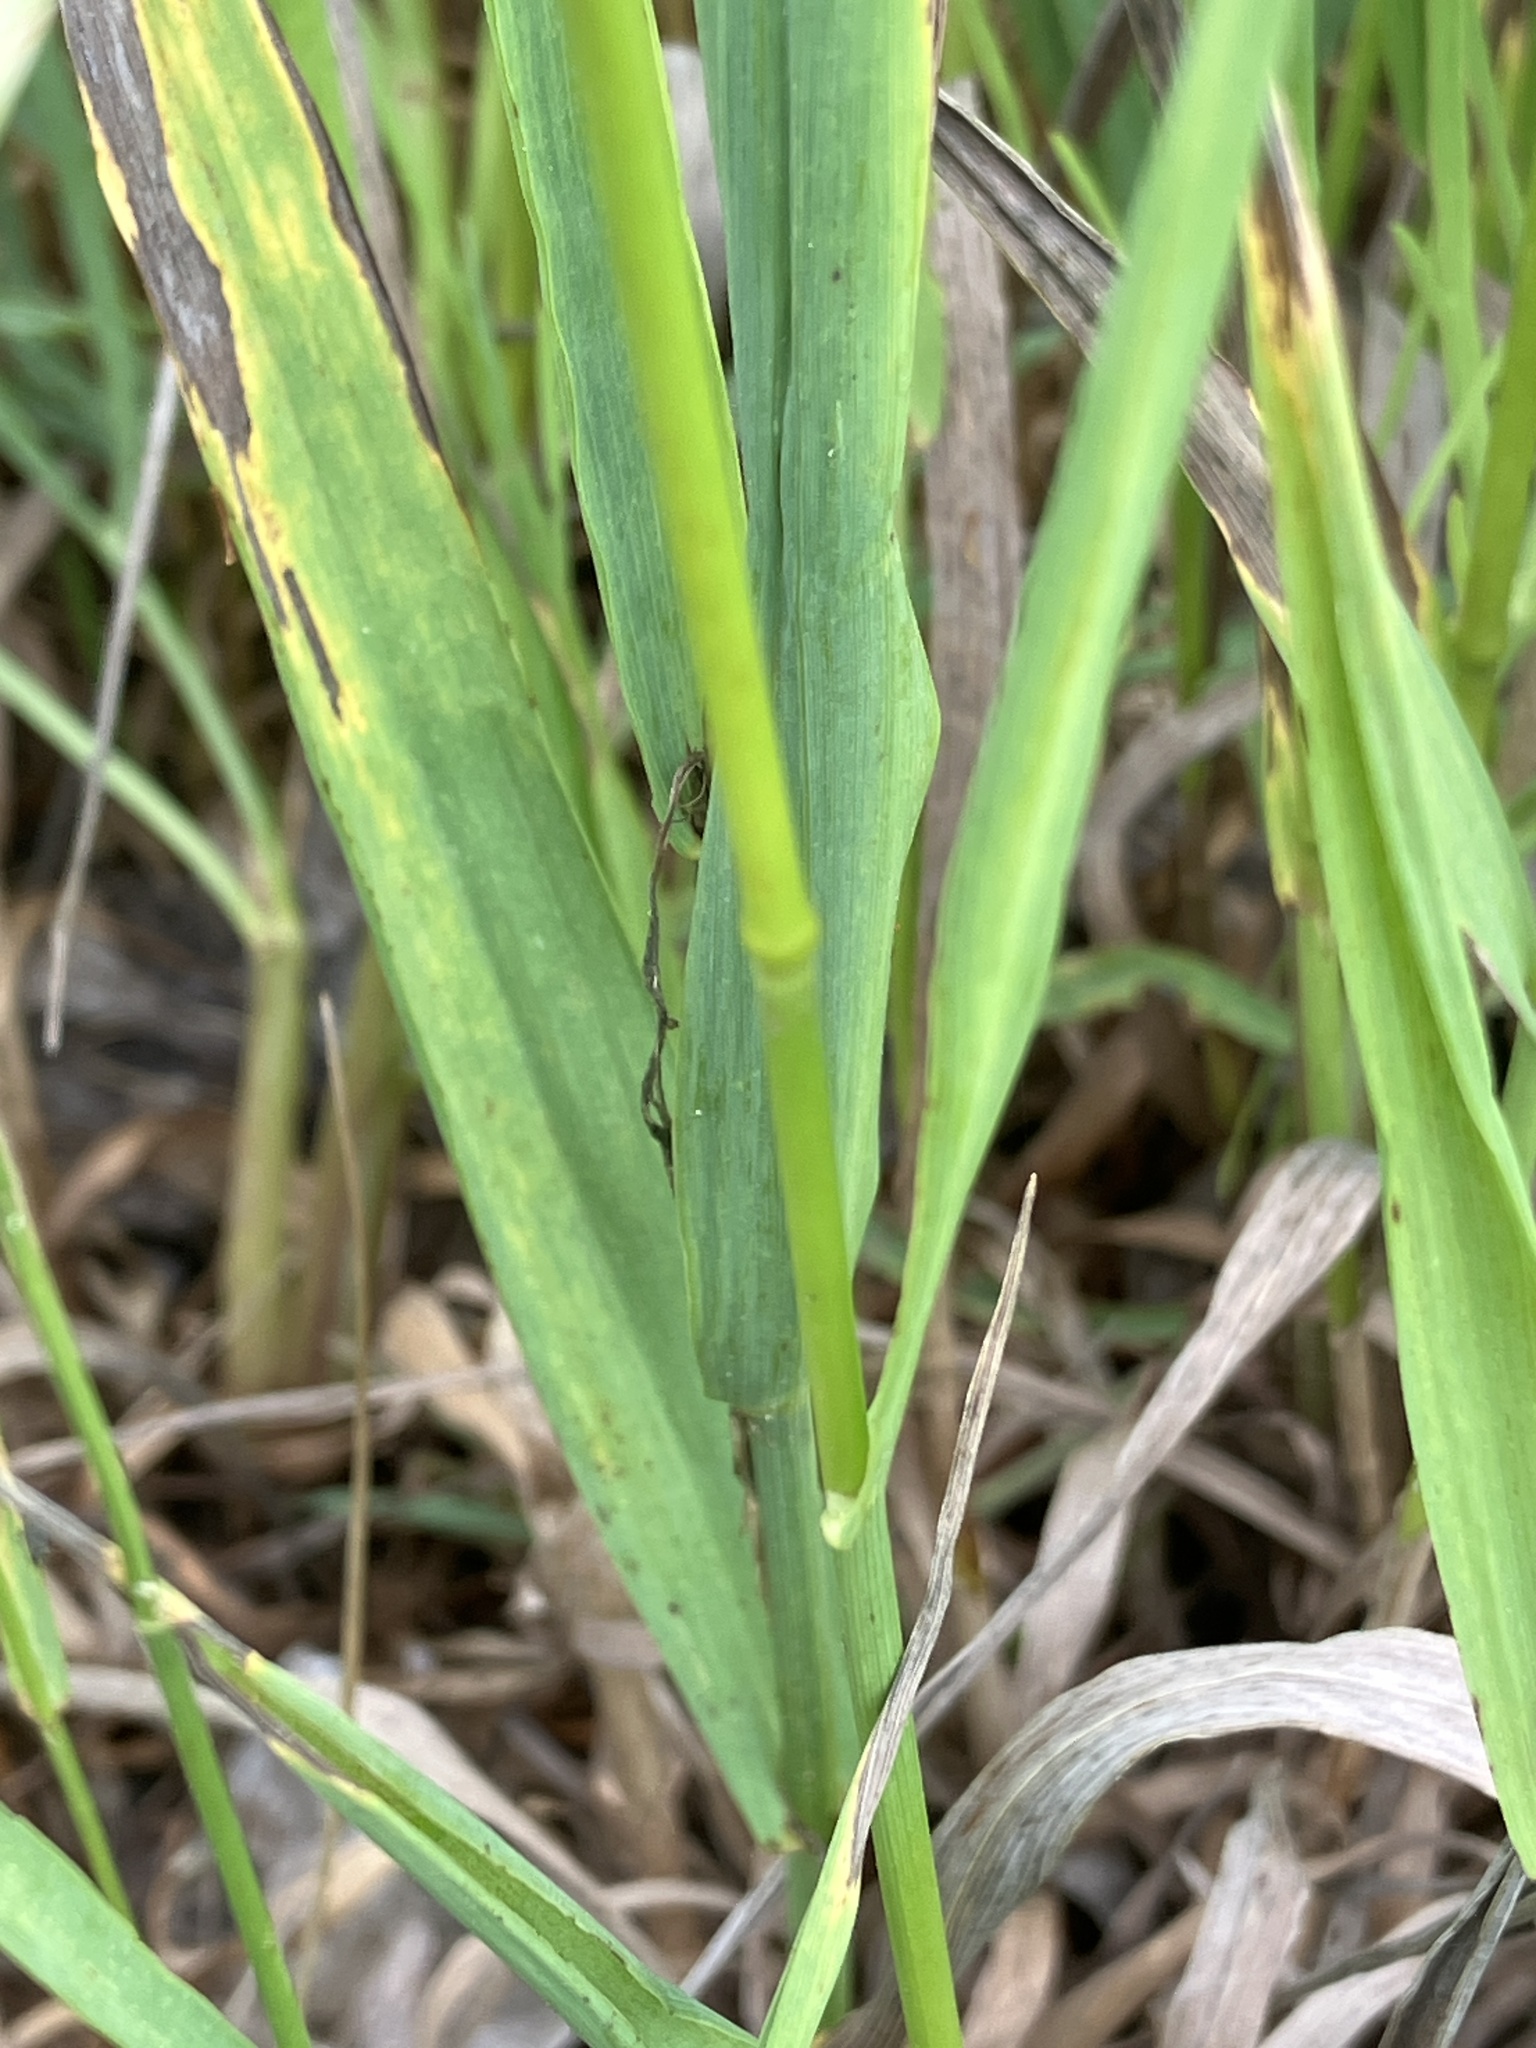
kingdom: Plantae
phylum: Tracheophyta
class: Liliopsida
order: Poales
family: Poaceae
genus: Bromus
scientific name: Bromus inermis
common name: Smooth brome
